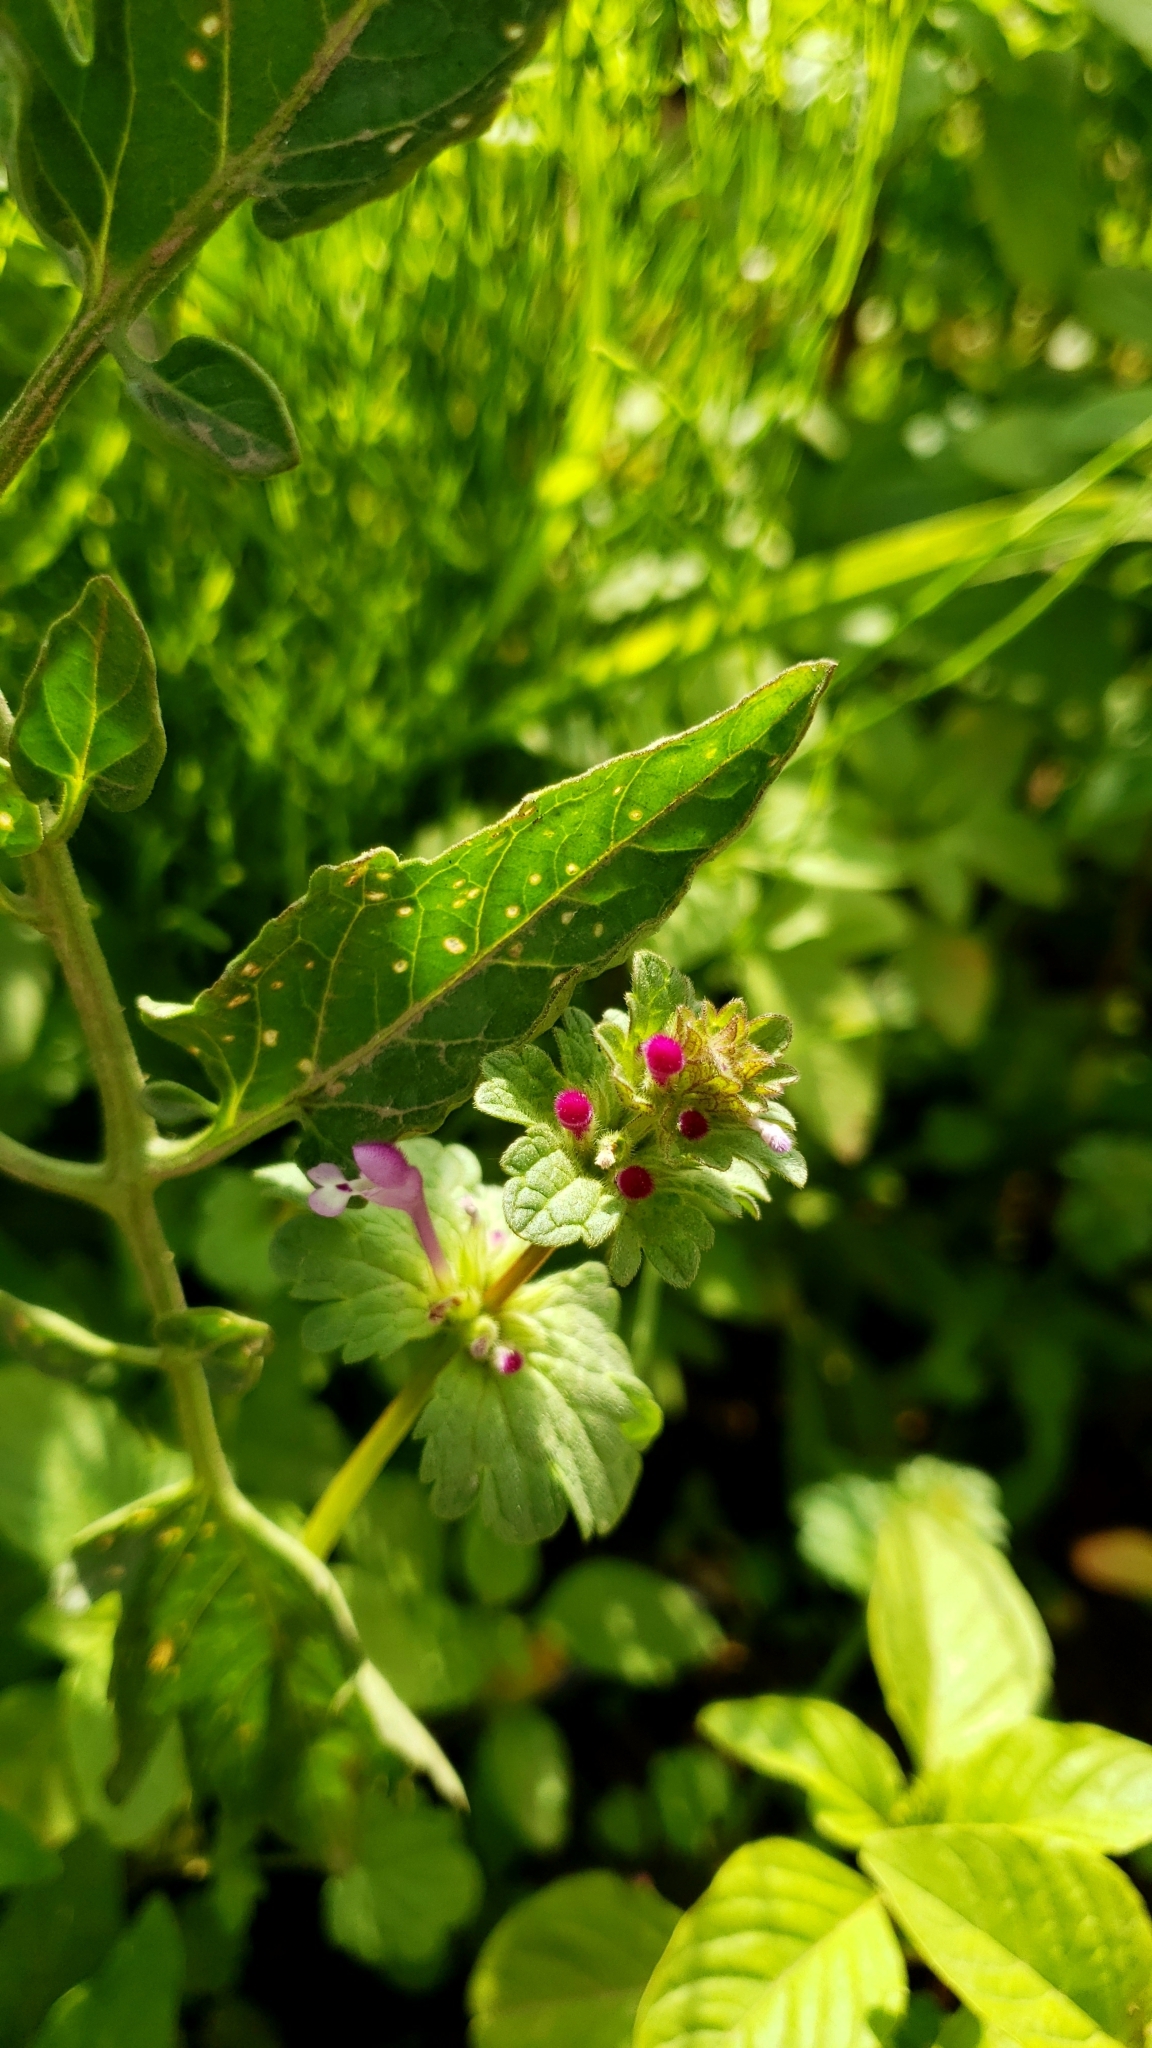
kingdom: Plantae
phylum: Tracheophyta
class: Magnoliopsida
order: Lamiales
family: Lamiaceae
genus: Lamium
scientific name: Lamium amplexicaule
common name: Henbit dead-nettle
